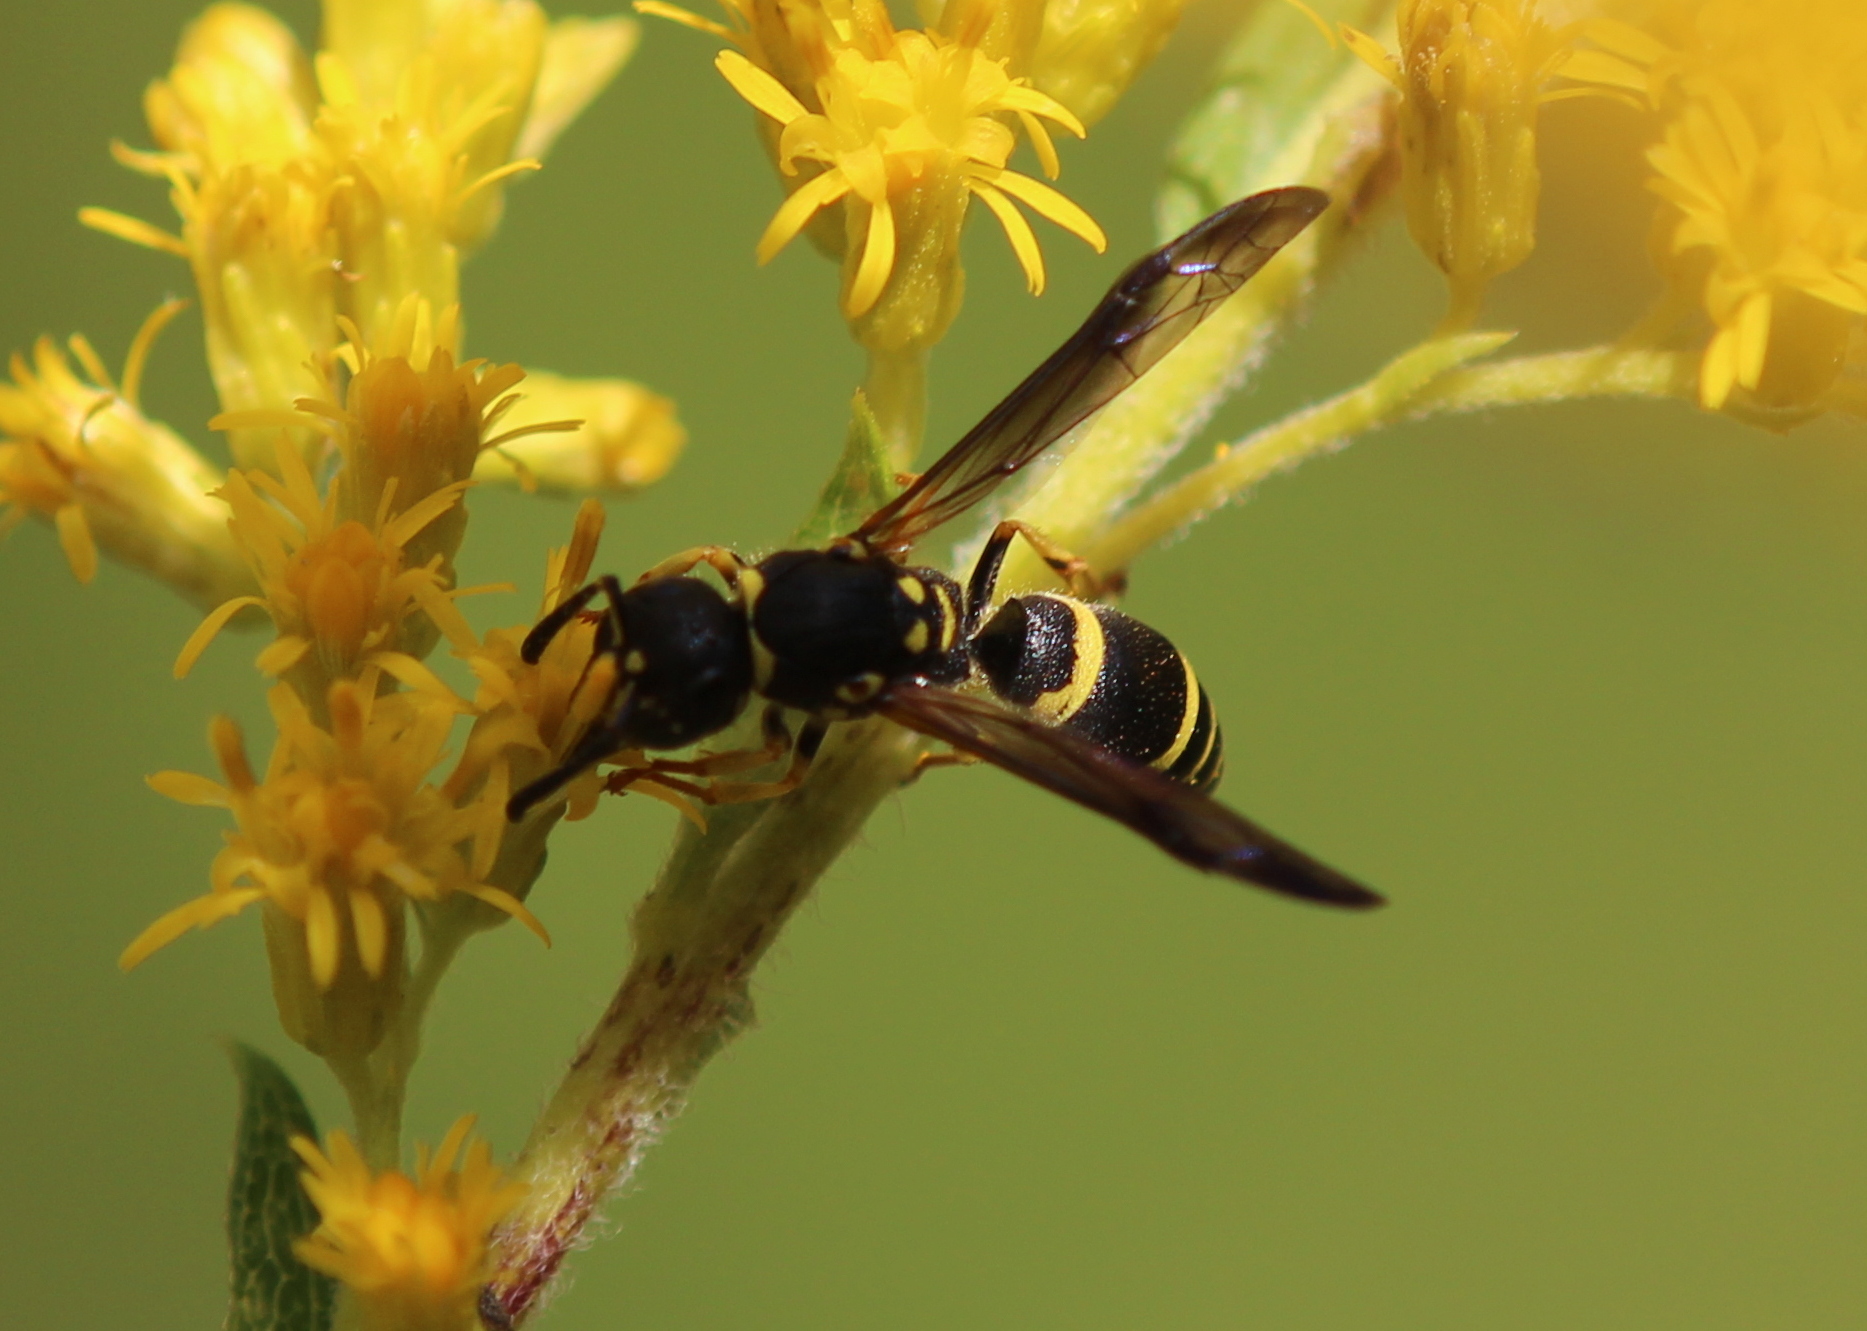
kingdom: Animalia
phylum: Arthropoda
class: Insecta
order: Hymenoptera
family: Vespidae
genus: Ancistrocerus
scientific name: Ancistrocerus adiabatus
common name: Bramble mason wasp
